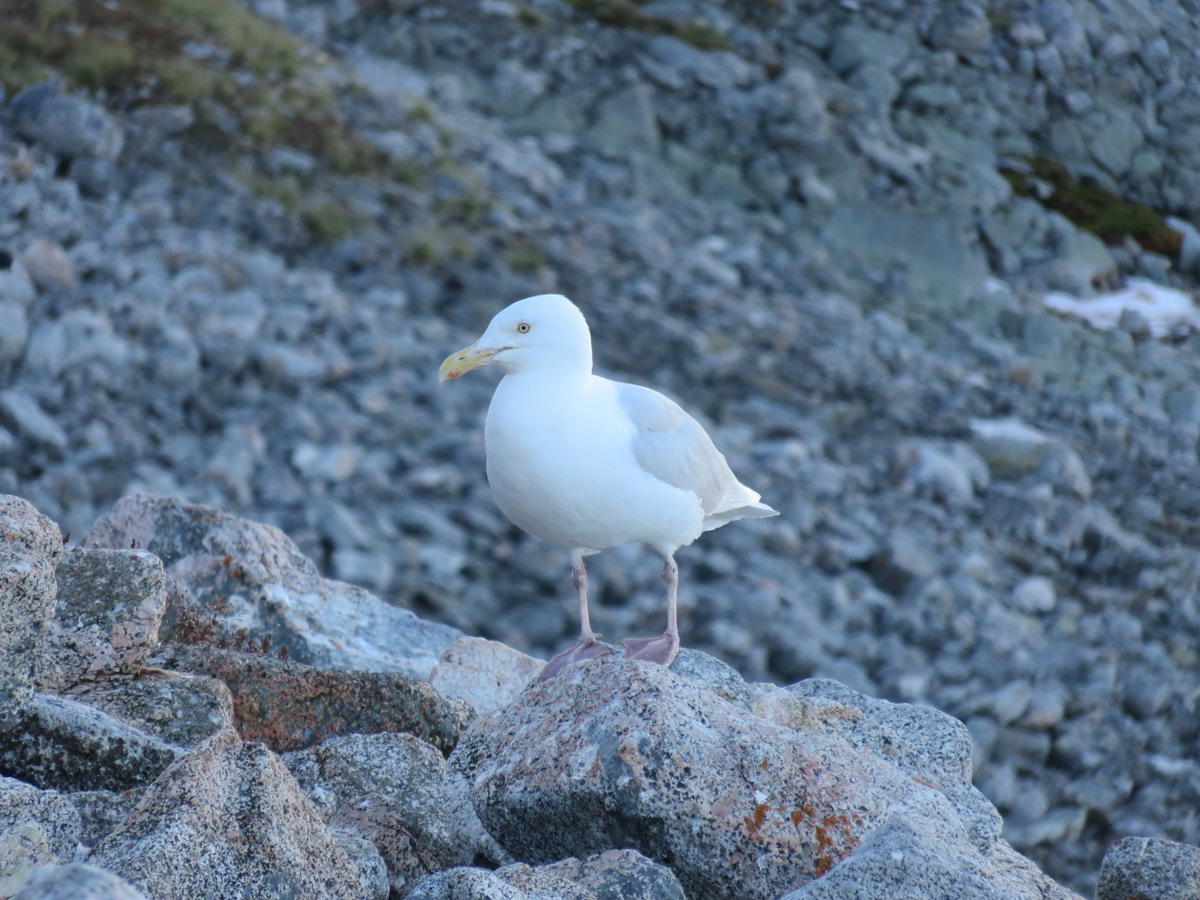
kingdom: Animalia
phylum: Chordata
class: Aves
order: Charadriiformes
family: Laridae
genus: Larus
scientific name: Larus hyperboreus
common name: Glaucous gull
